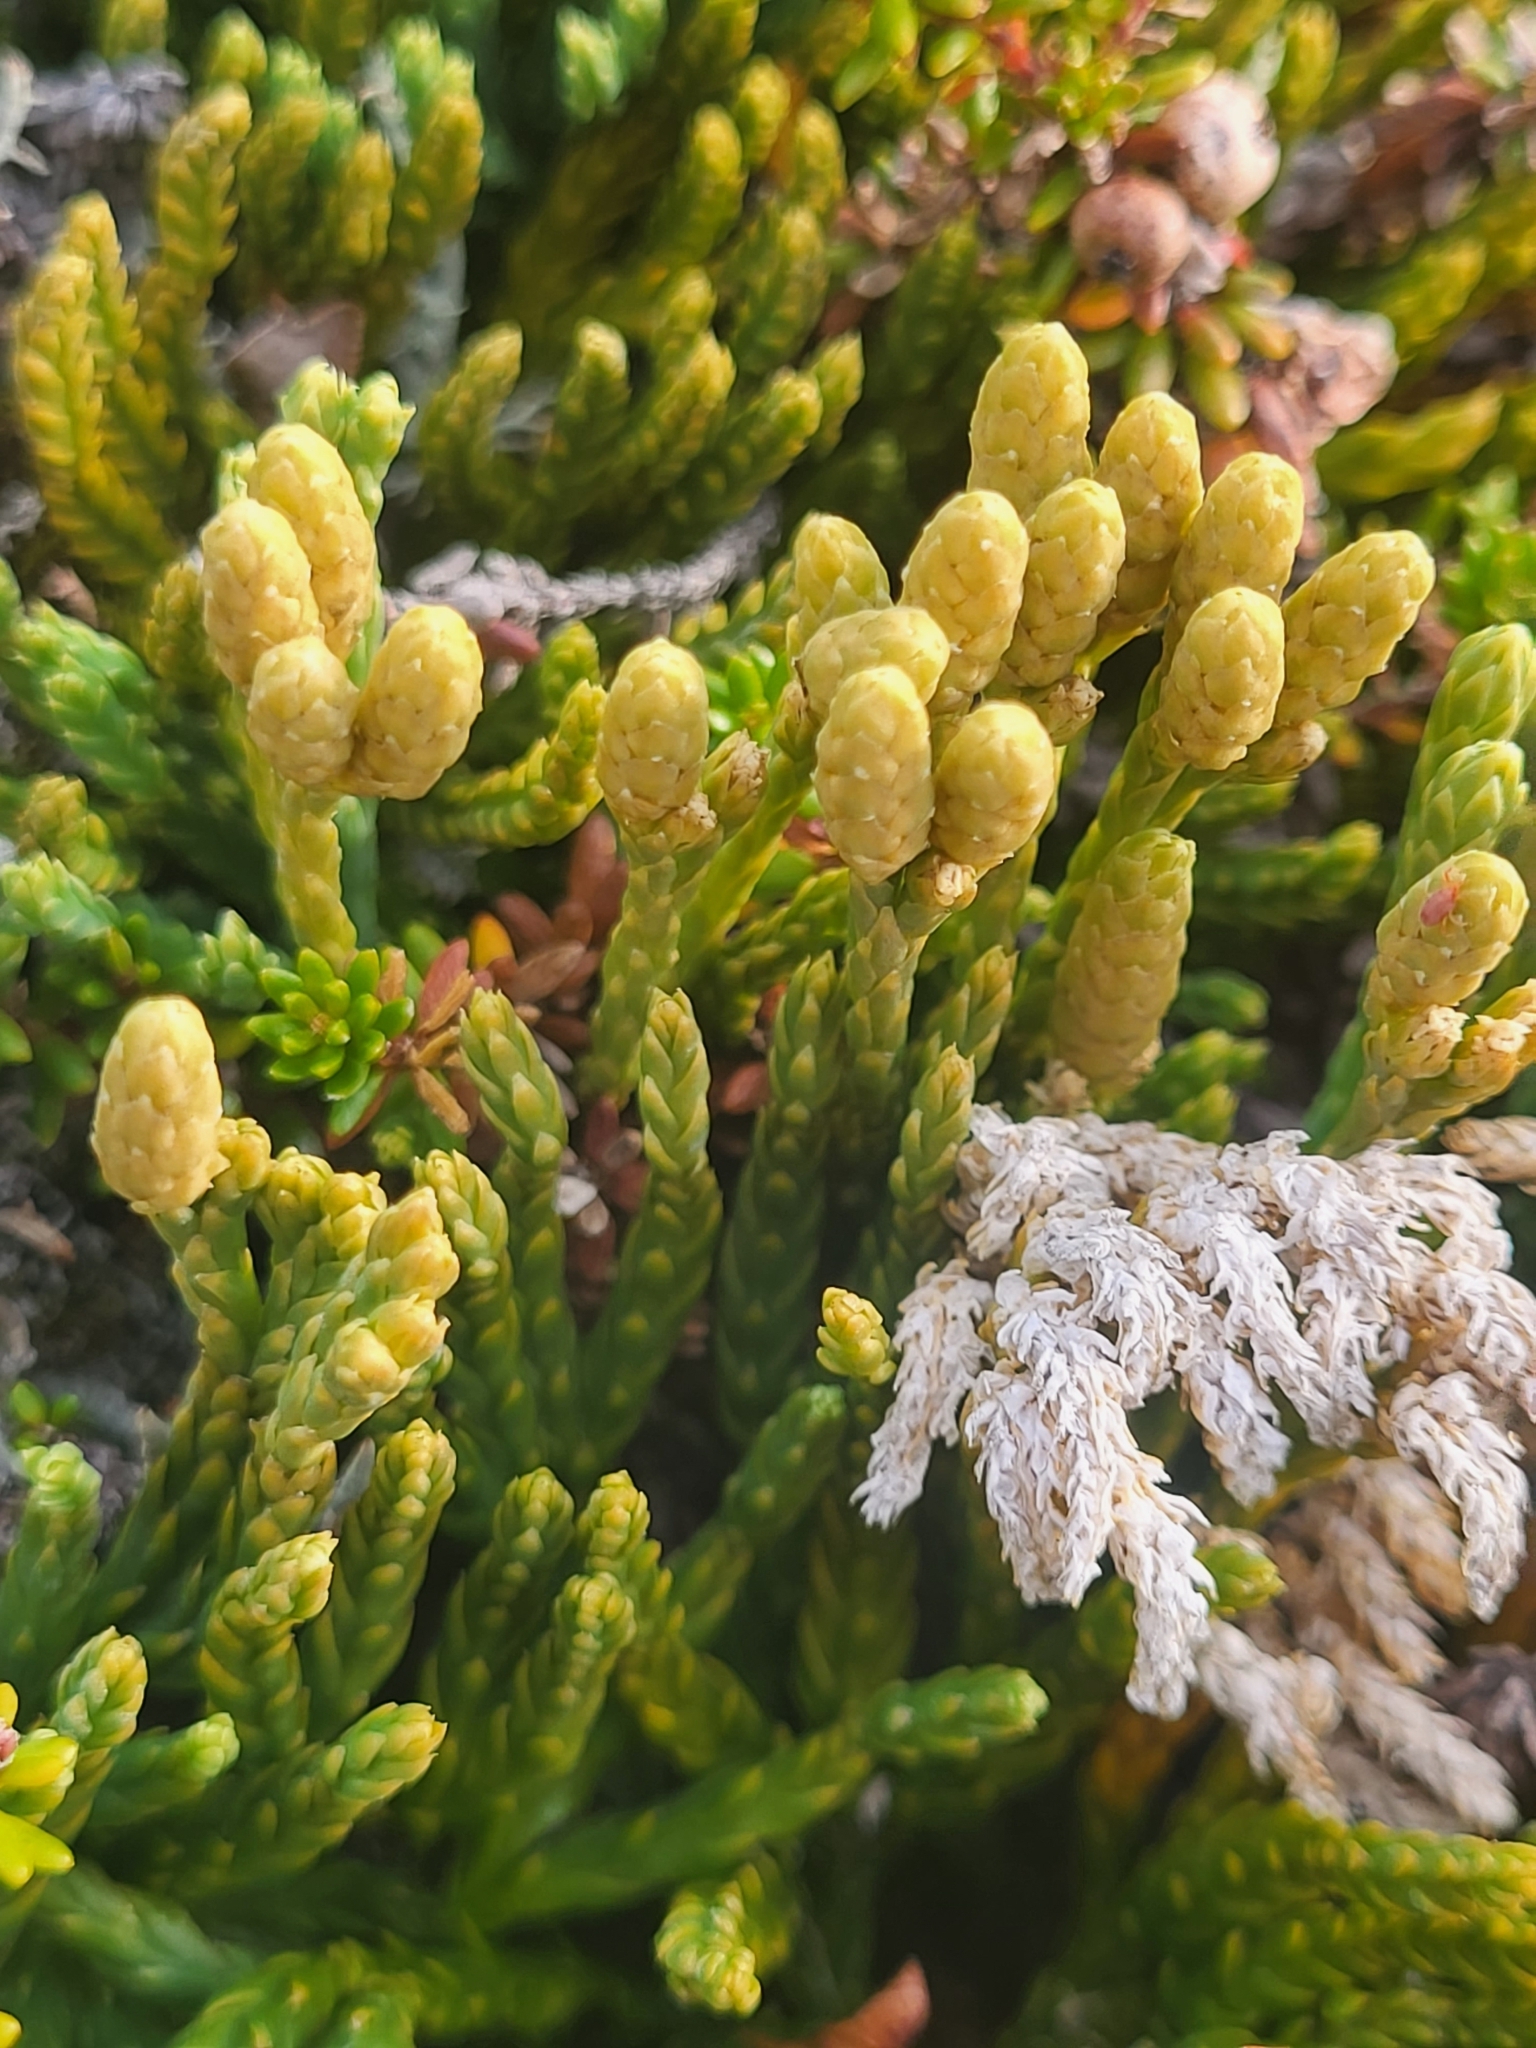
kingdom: Plantae
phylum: Tracheophyta
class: Lycopodiopsida
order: Lycopodiales
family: Lycopodiaceae
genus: Diphasiastrum
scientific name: Diphasiastrum alpinum
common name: Alpine clubmoss
